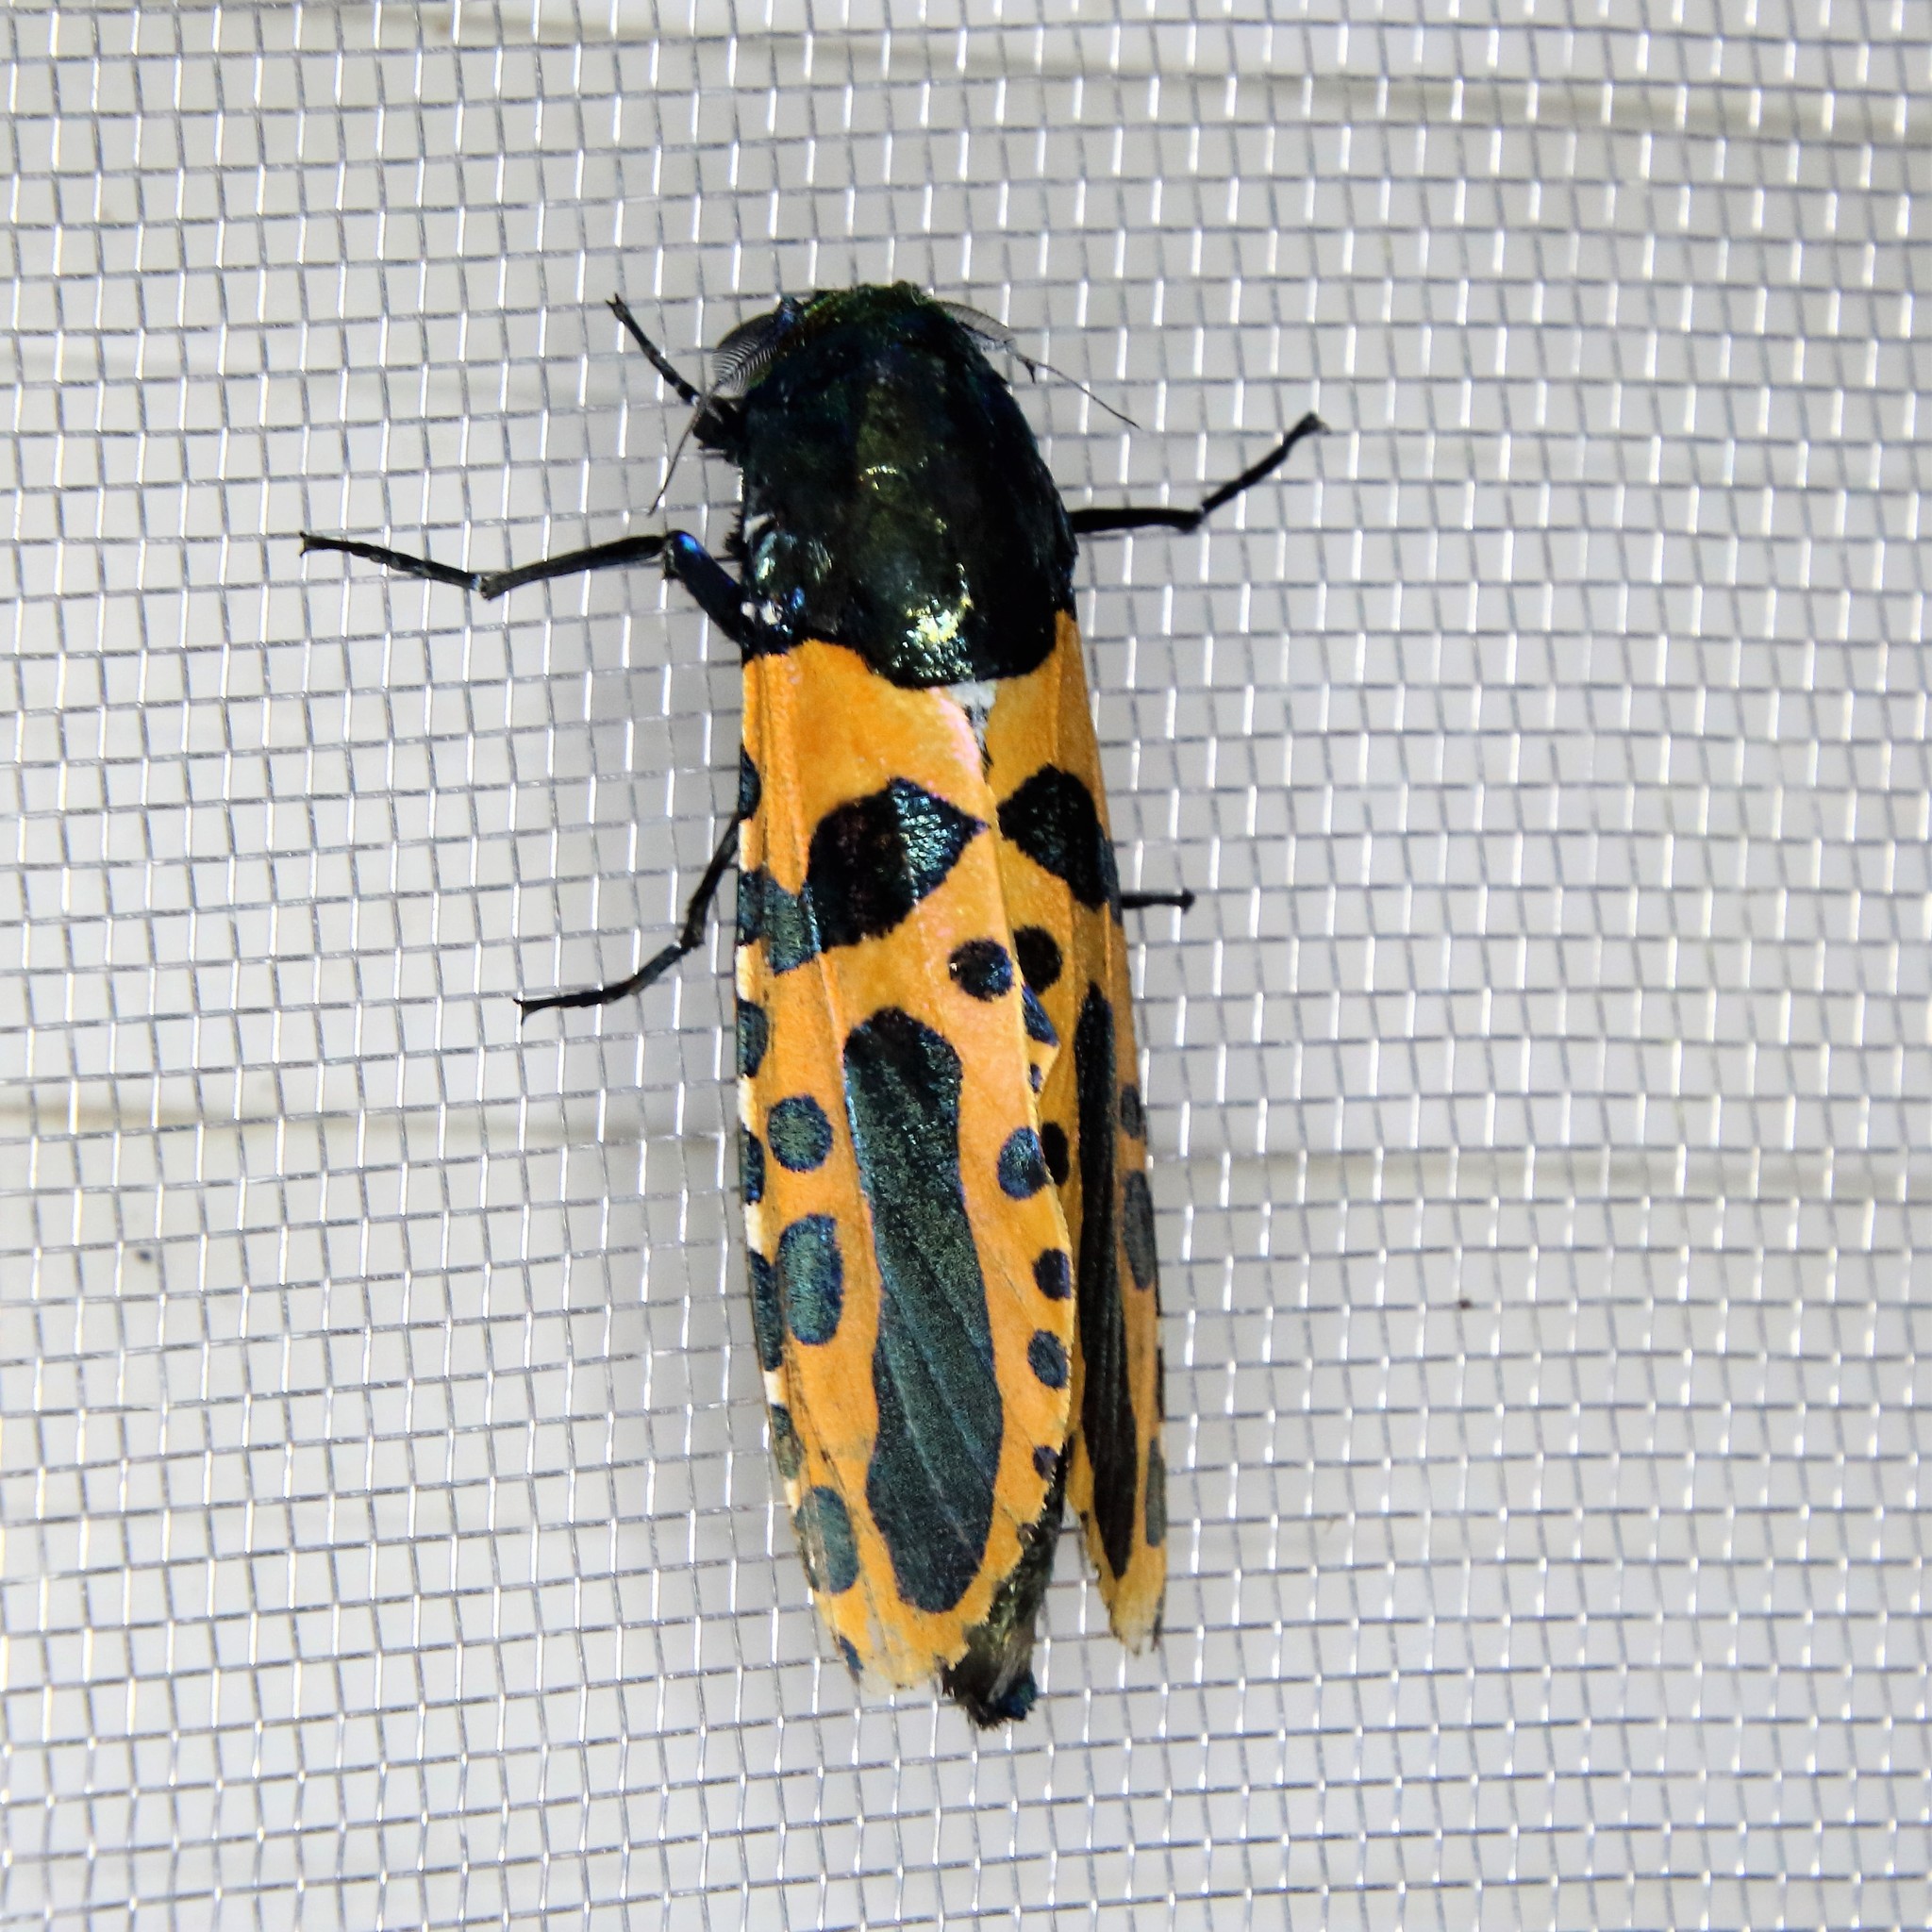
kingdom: Animalia
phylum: Arthropoda
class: Insecta
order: Lepidoptera
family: Cossidae
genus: Chalcidica
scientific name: Chalcidica minea
